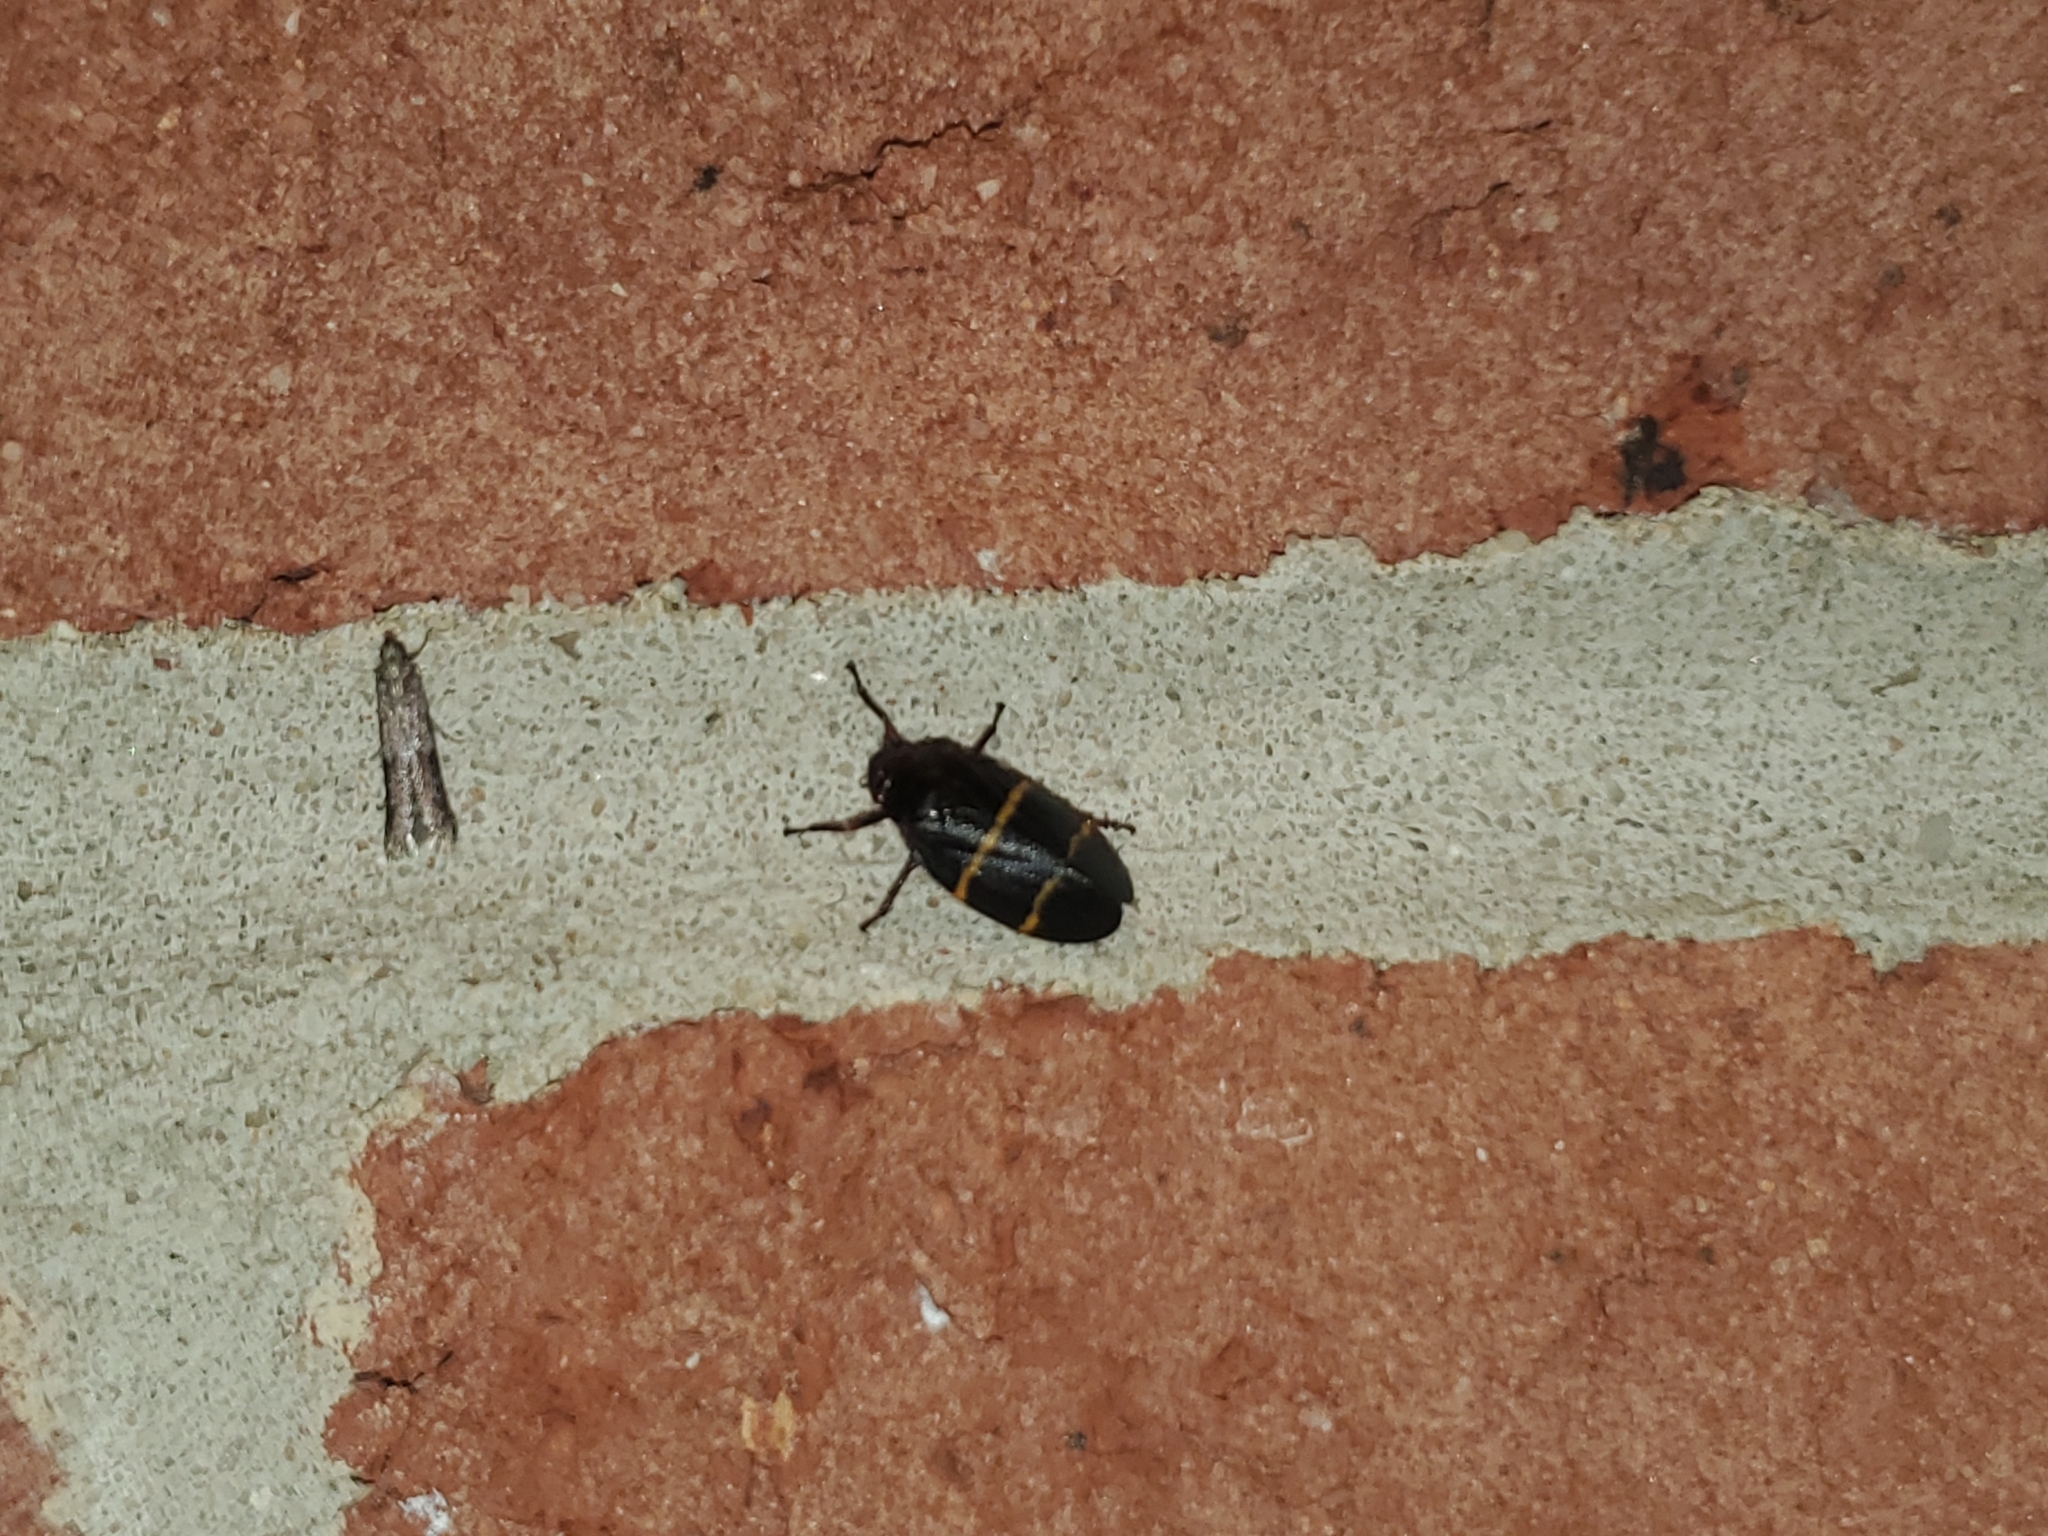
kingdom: Animalia
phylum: Arthropoda
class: Insecta
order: Hemiptera
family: Cercopidae
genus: Prosapia
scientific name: Prosapia bicincta
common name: Twolined spittlebug
